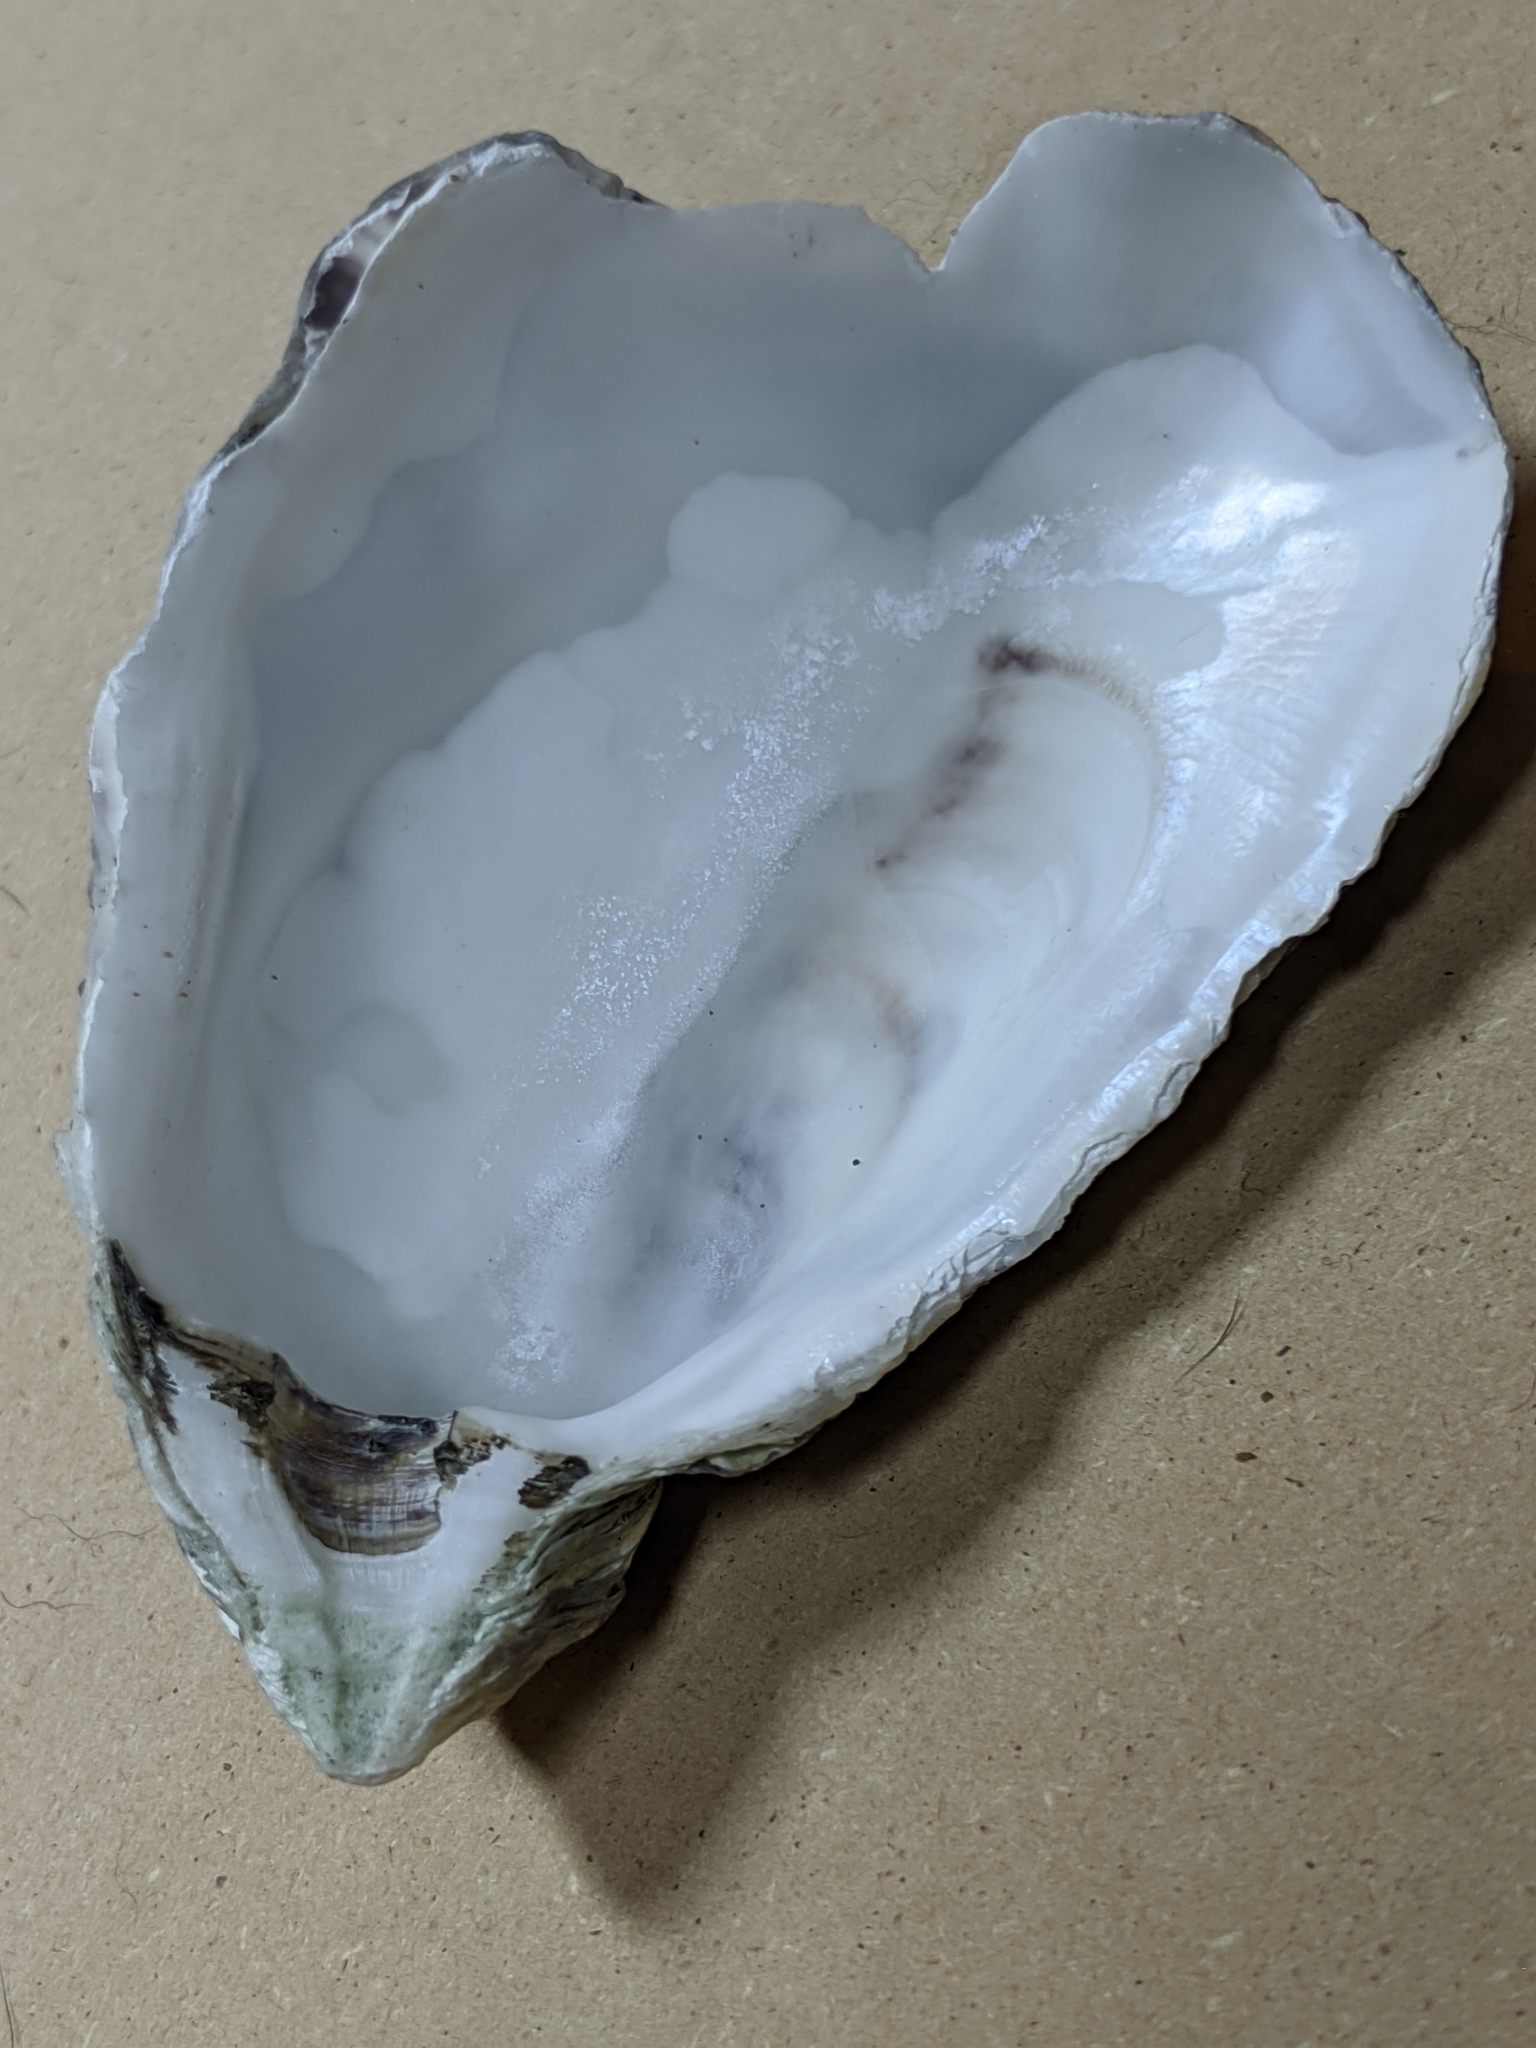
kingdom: Animalia
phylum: Mollusca
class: Bivalvia
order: Ostreida
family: Ostreidae
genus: Magallana
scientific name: Magallana gigas
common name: Pacific oyster
